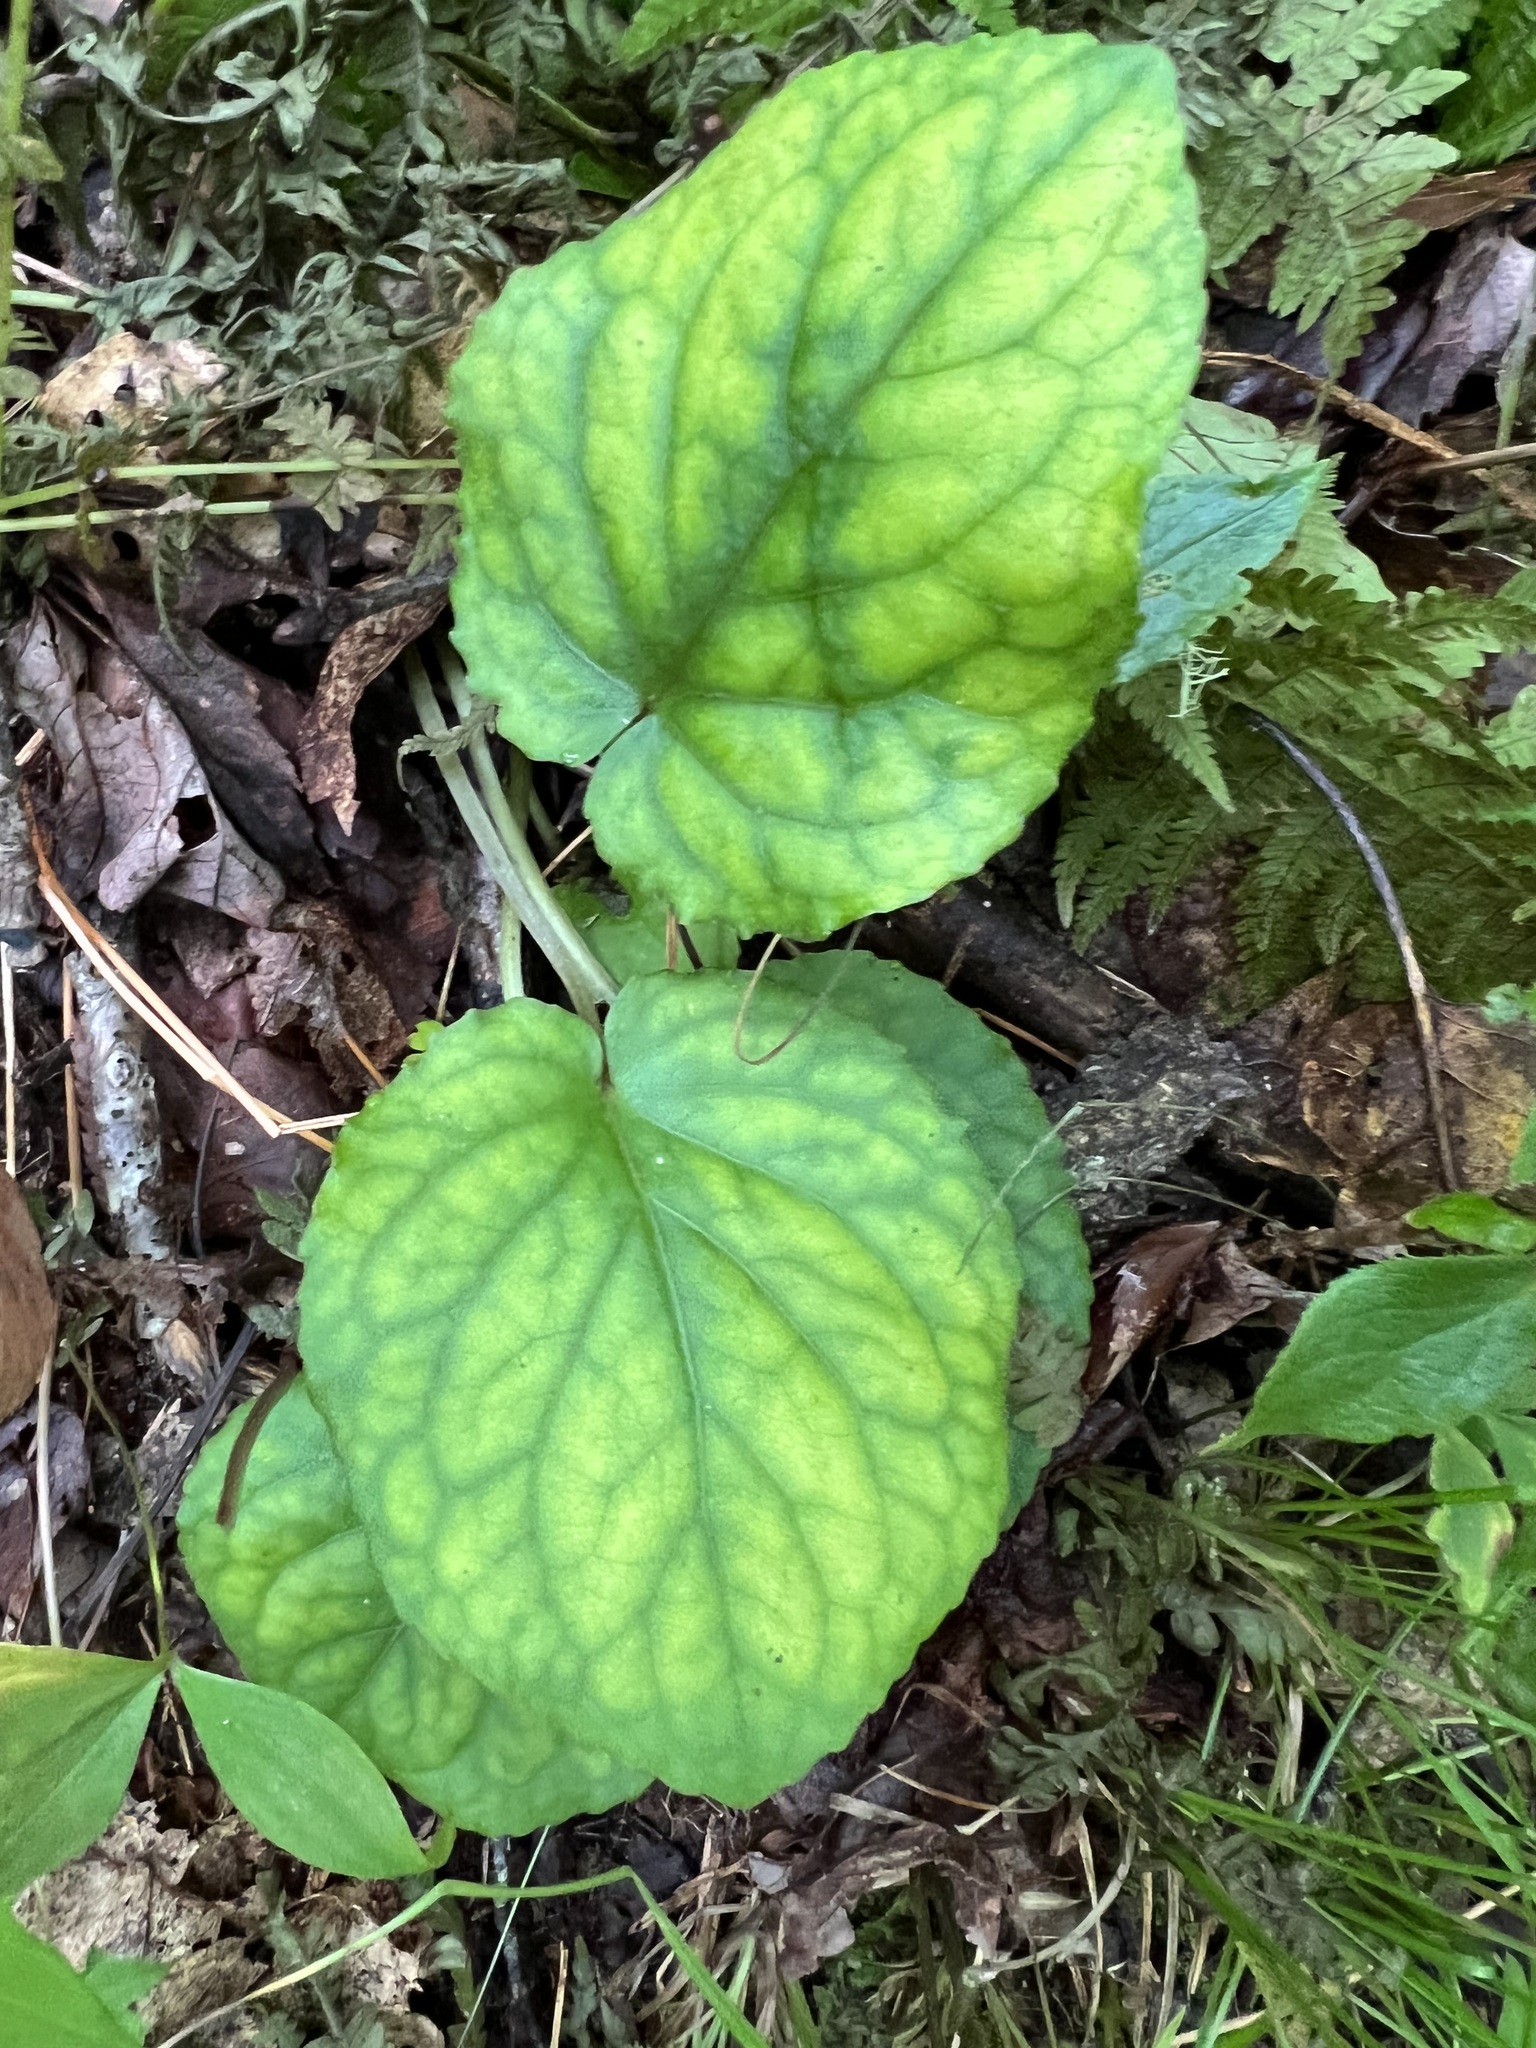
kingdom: Plantae
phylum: Tracheophyta
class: Magnoliopsida
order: Malpighiales
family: Violaceae
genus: Viola
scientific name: Viola rotundifolia
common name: Early yellow violet
